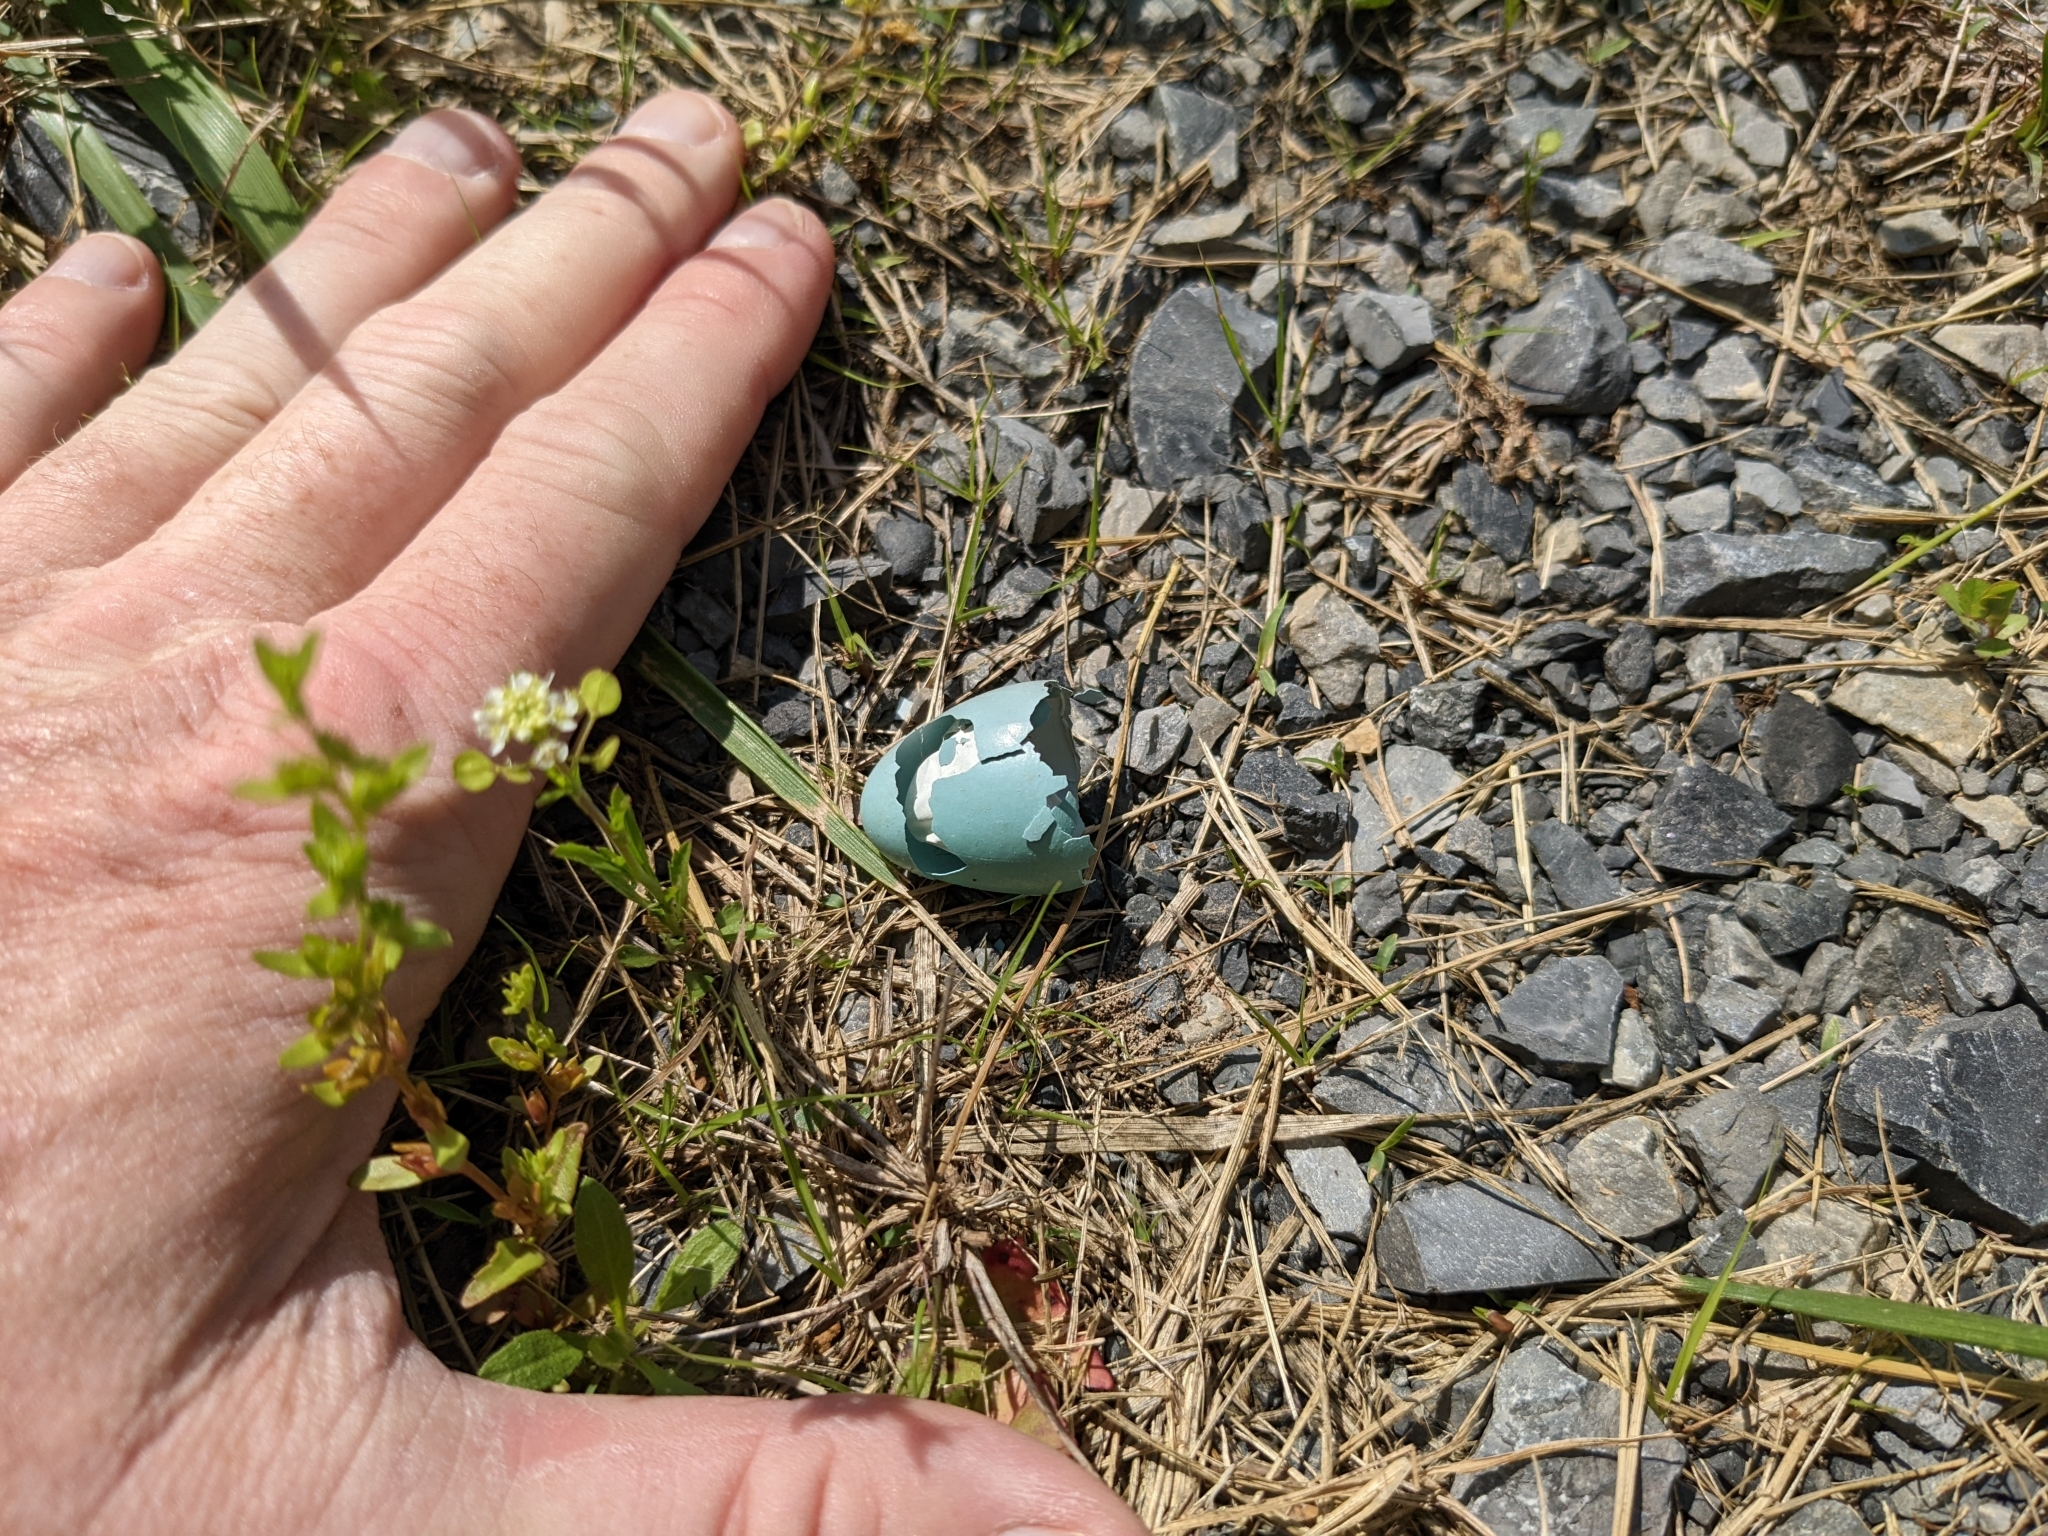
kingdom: Animalia
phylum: Chordata
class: Aves
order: Passeriformes
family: Turdidae
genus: Turdus
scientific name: Turdus migratorius
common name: American robin
